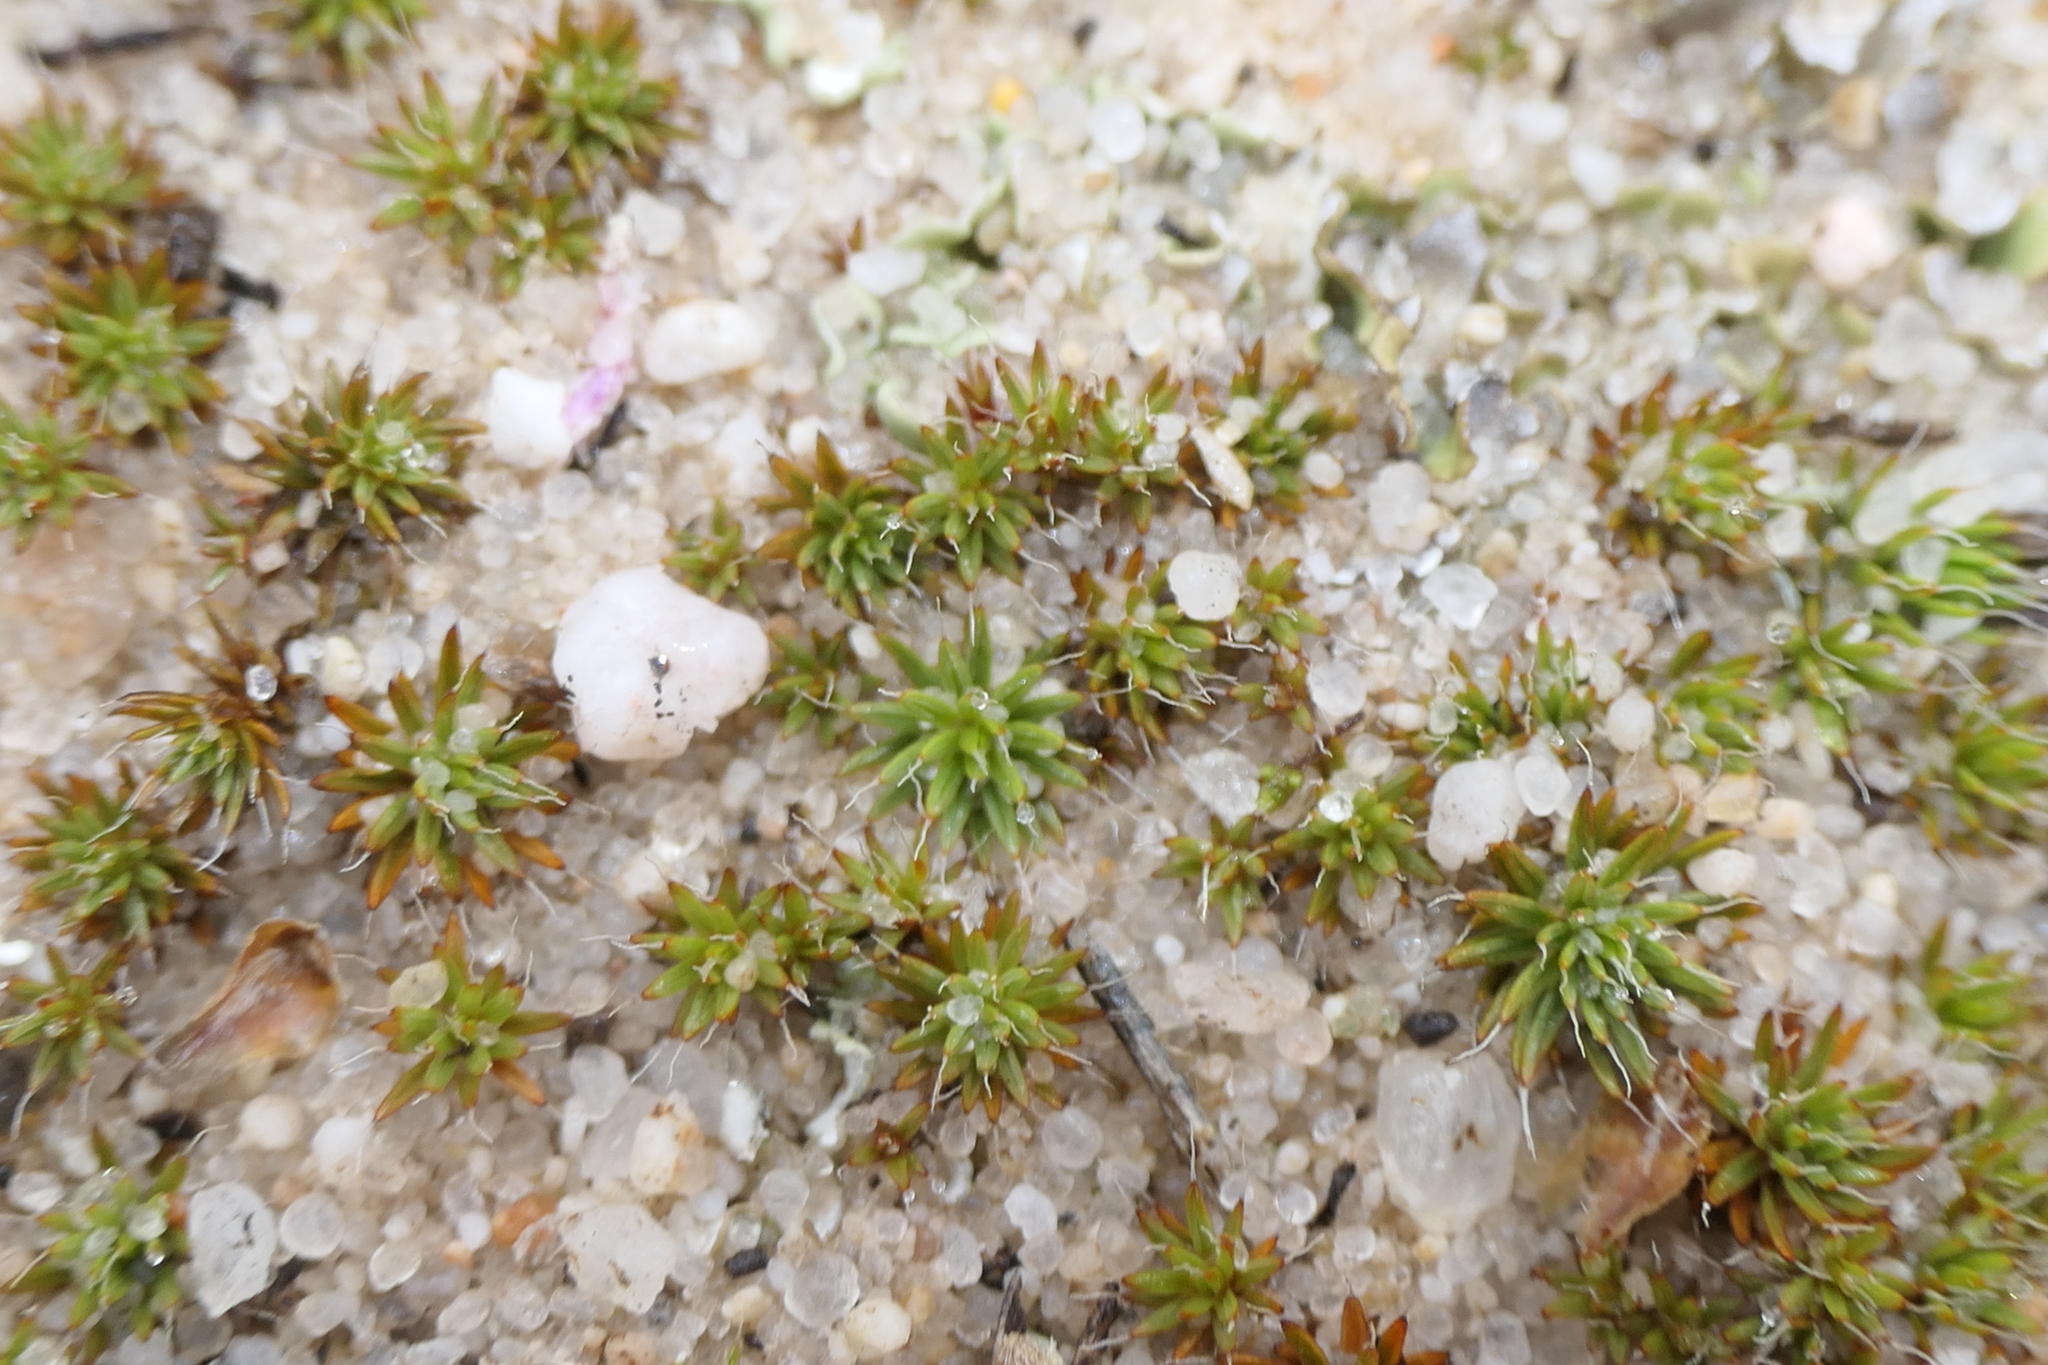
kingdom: Plantae
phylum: Bryophyta
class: Polytrichopsida
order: Polytrichales
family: Polytrichaceae
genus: Polytrichum
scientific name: Polytrichum piliferum
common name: Bristly haircap
